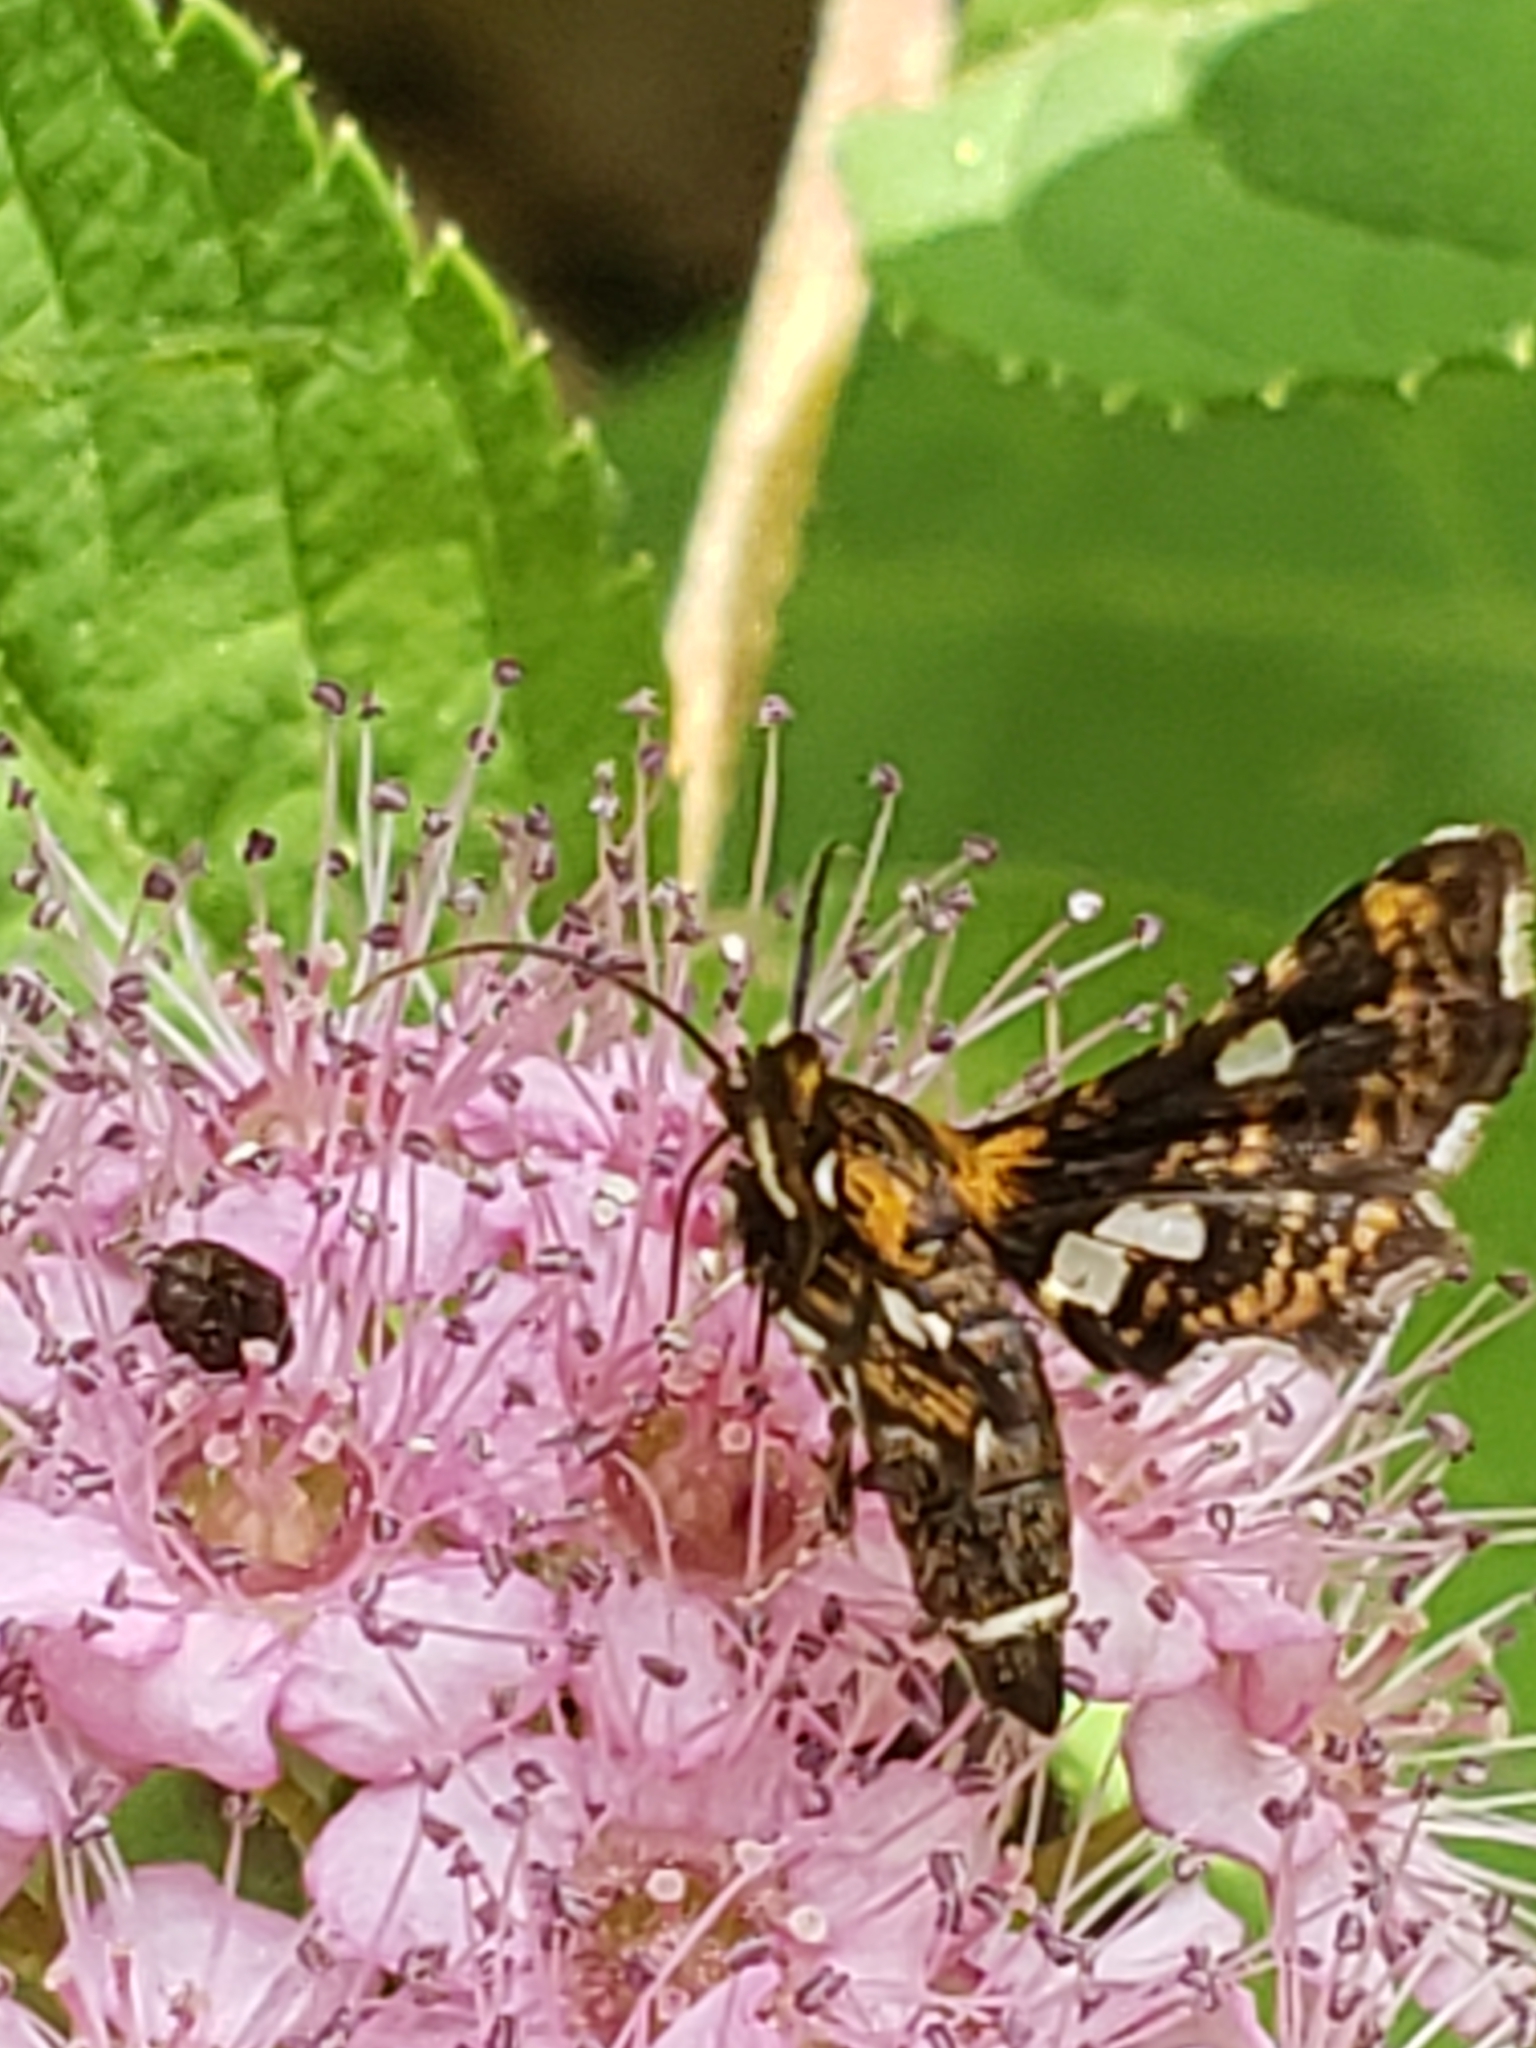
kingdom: Animalia
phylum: Arthropoda
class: Insecta
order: Lepidoptera
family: Thyrididae
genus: Thyris
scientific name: Thyris maculata
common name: Spotted thyris moth
